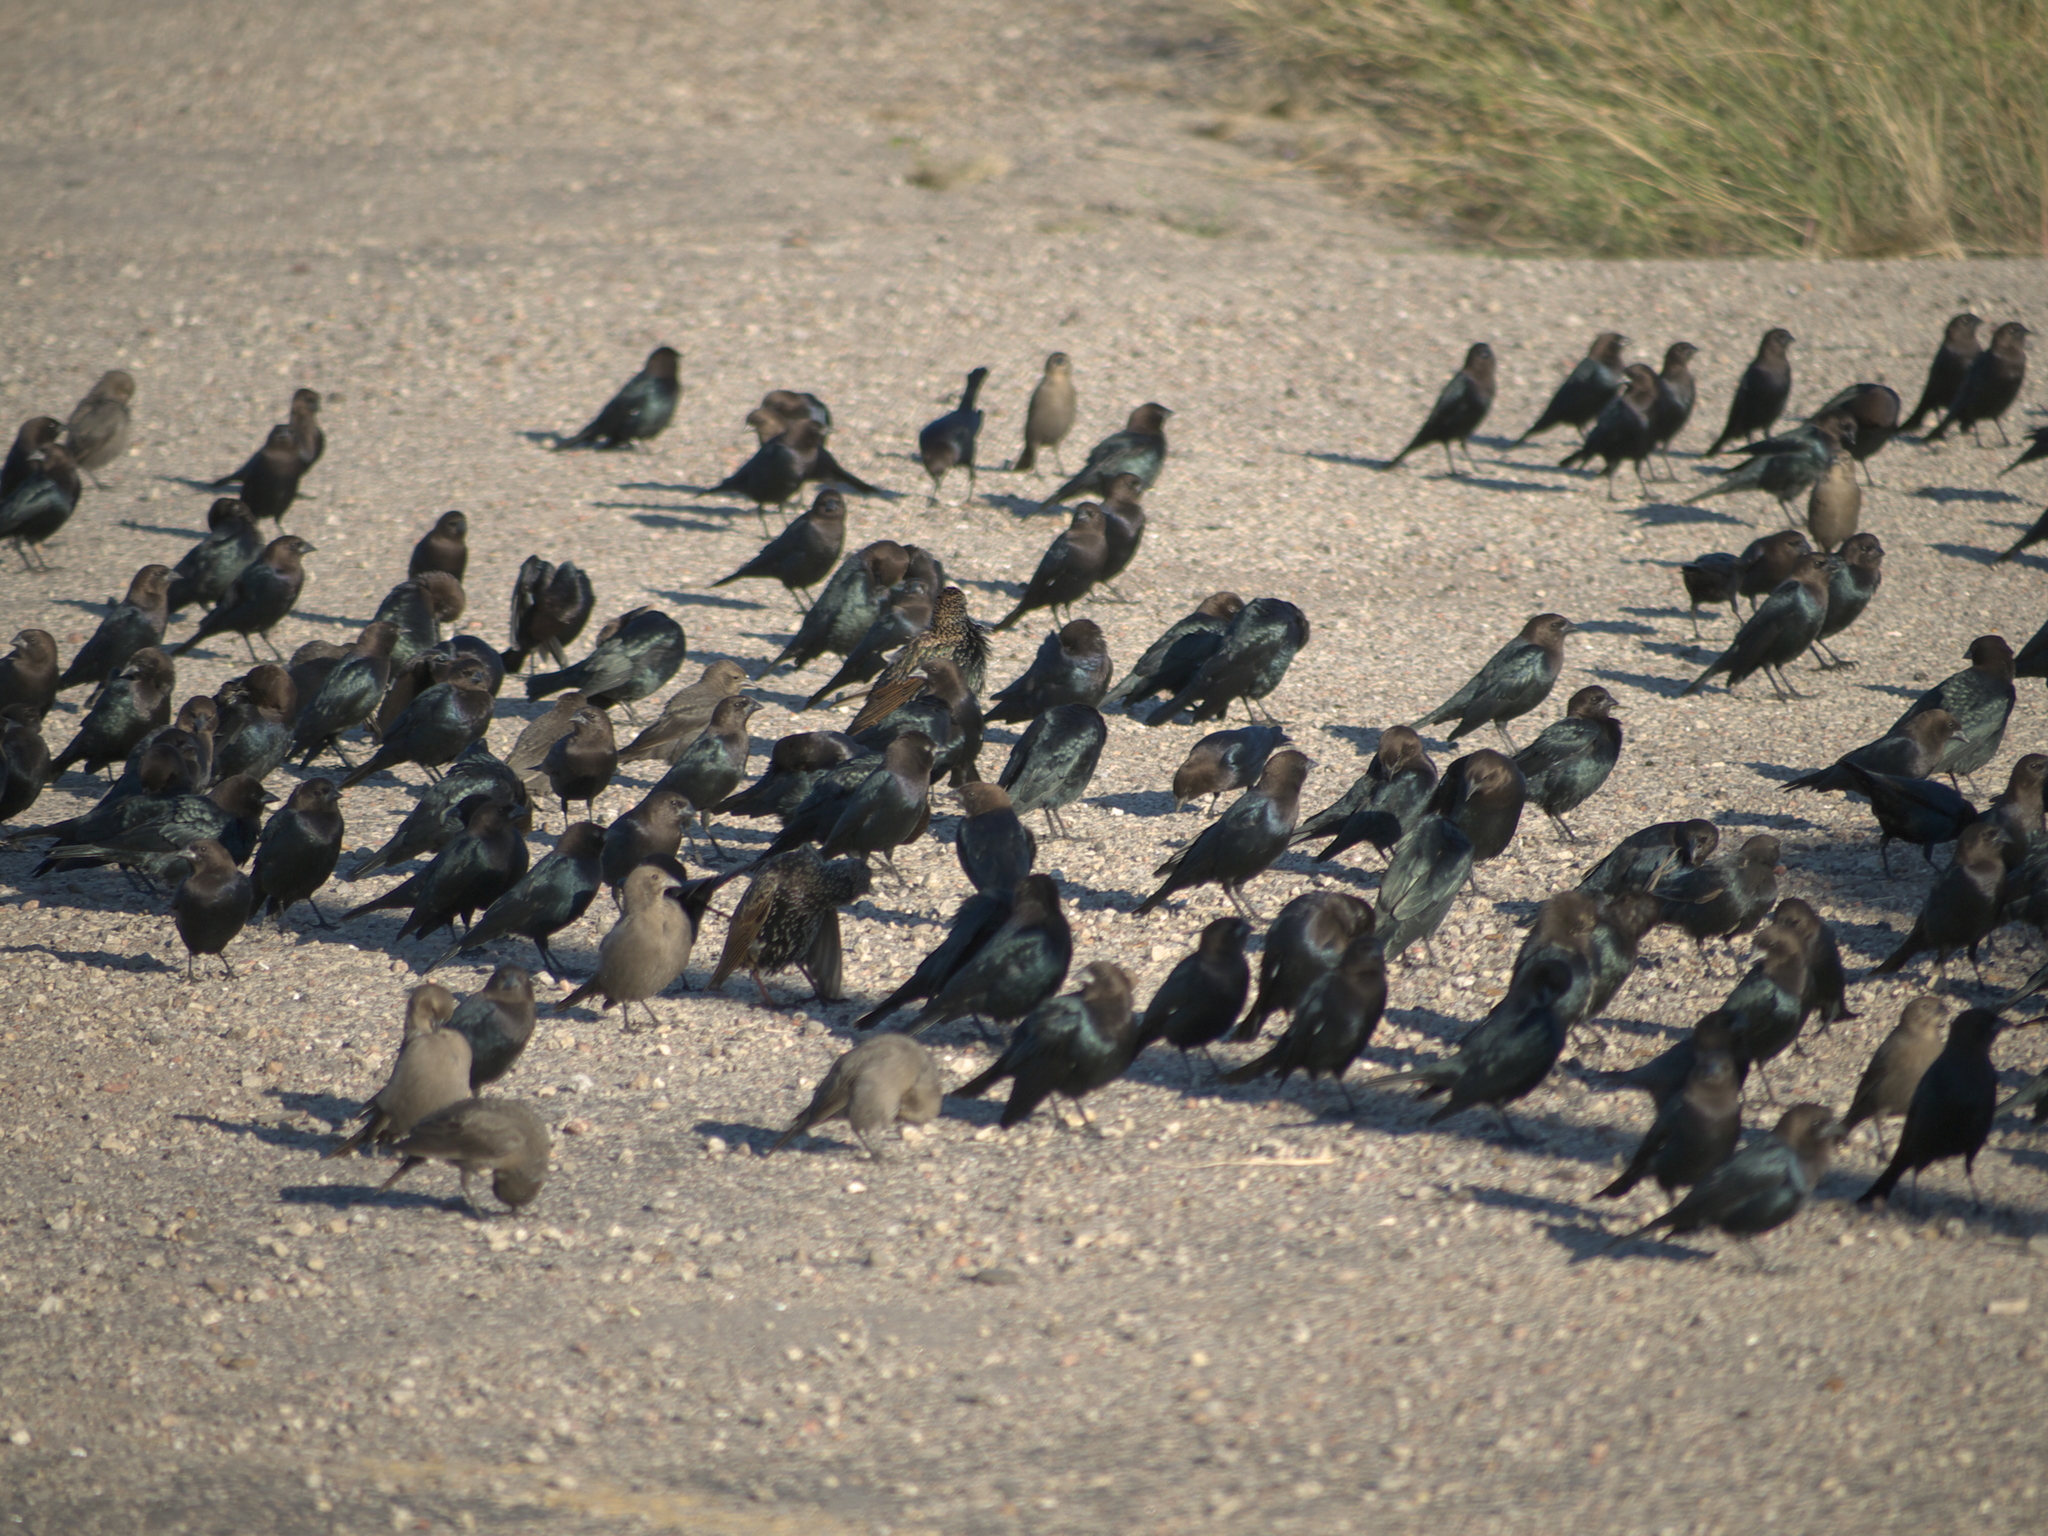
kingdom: Animalia
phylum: Chordata
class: Aves
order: Passeriformes
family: Icteridae
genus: Molothrus
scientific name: Molothrus ater
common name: Brown-headed cowbird
